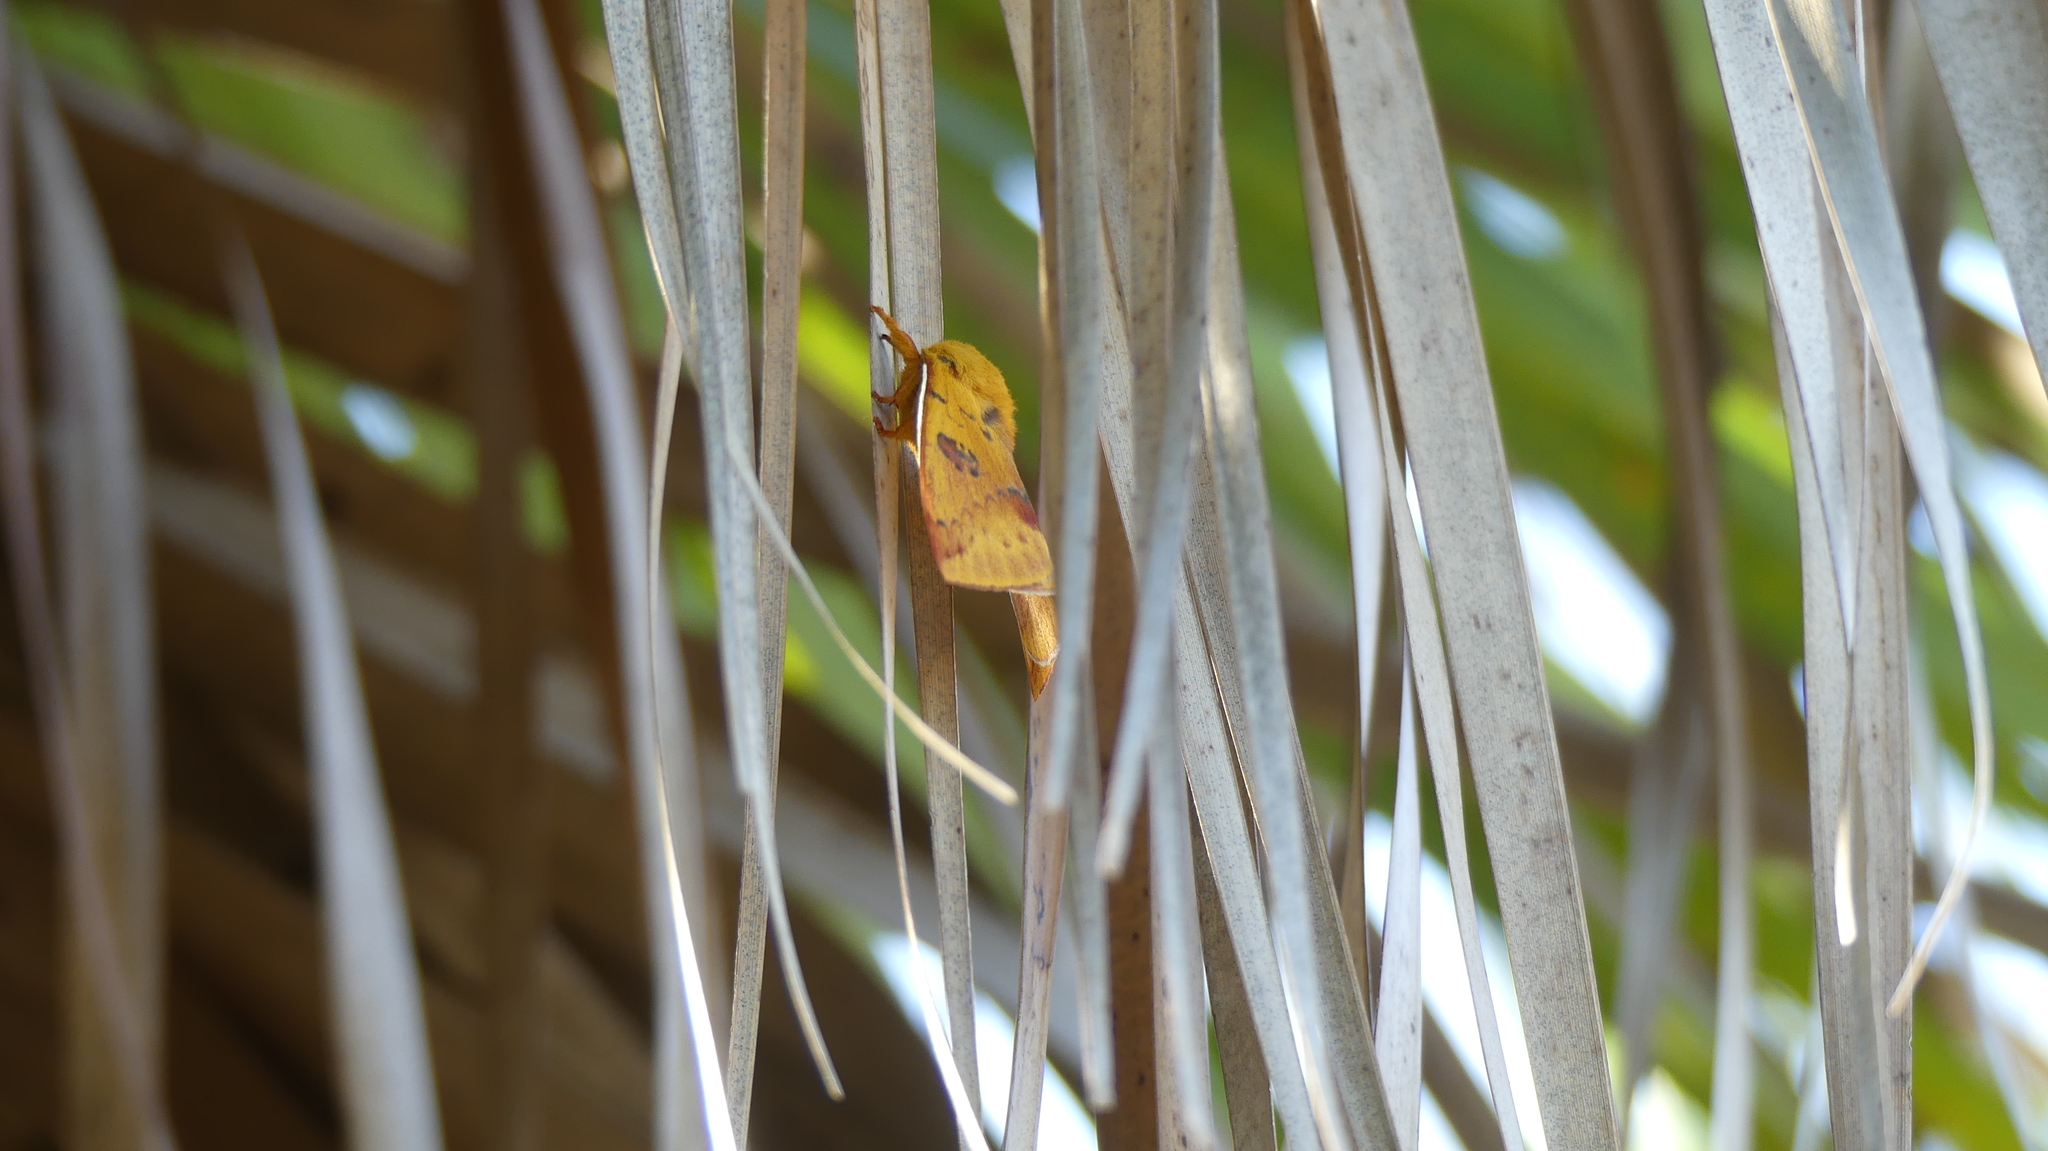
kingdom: Animalia
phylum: Arthropoda
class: Insecta
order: Lepidoptera
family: Saturniidae
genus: Automeris
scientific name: Automeris io
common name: Io moth
